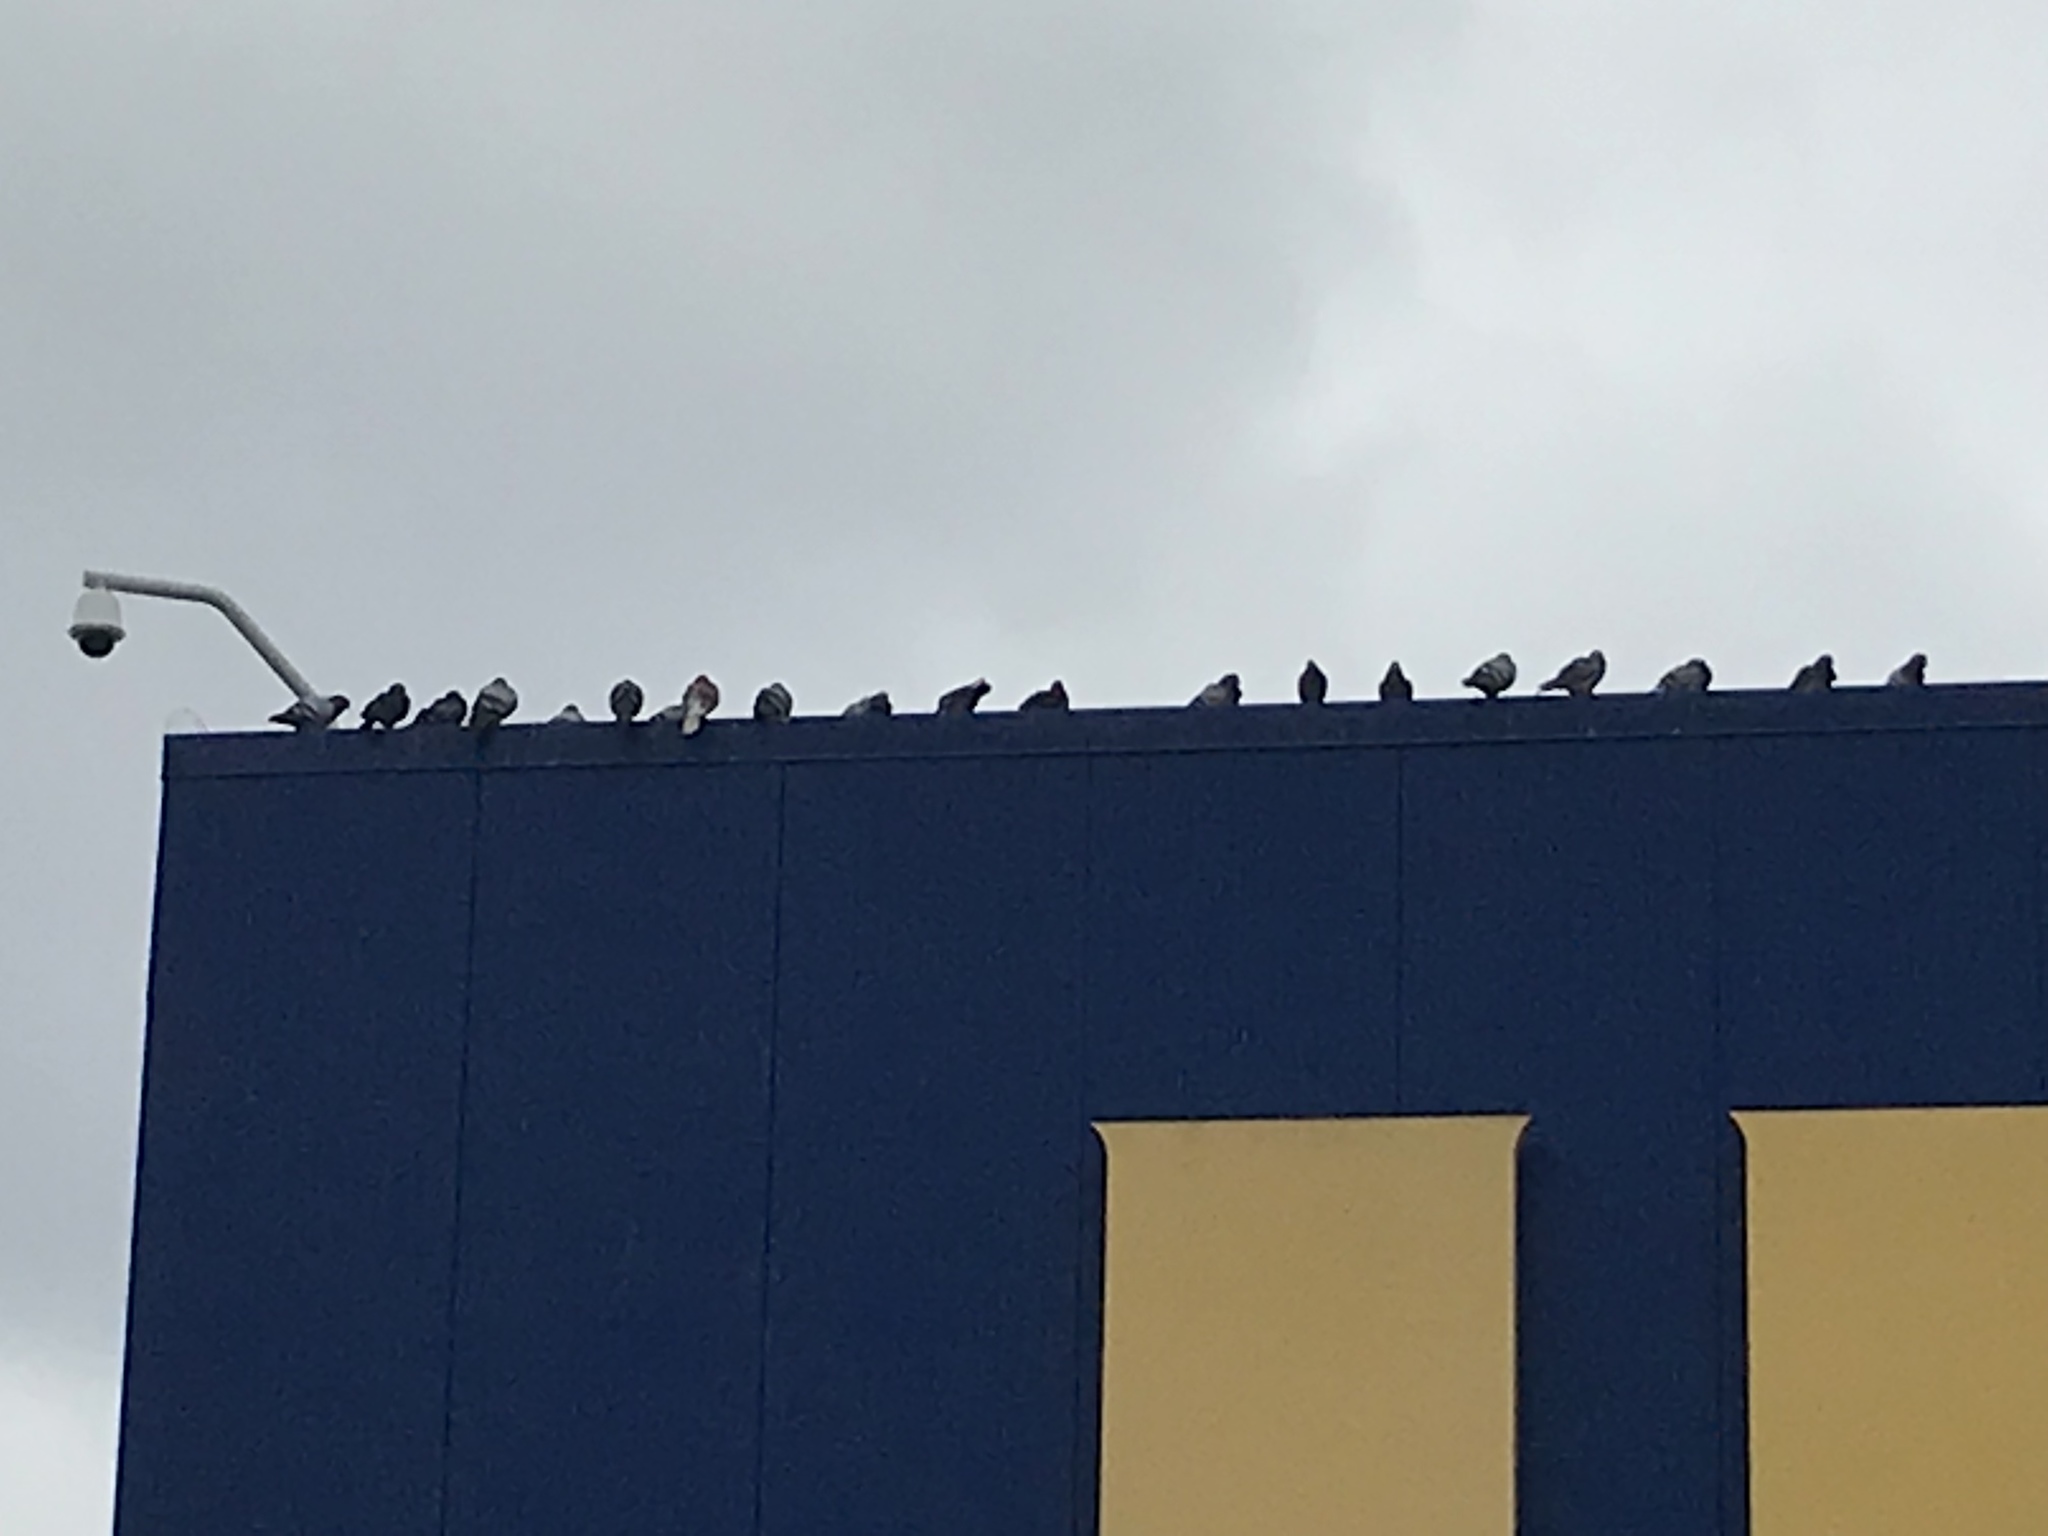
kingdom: Animalia
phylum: Chordata
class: Aves
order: Columbiformes
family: Columbidae
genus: Columba
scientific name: Columba livia
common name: Rock pigeon
